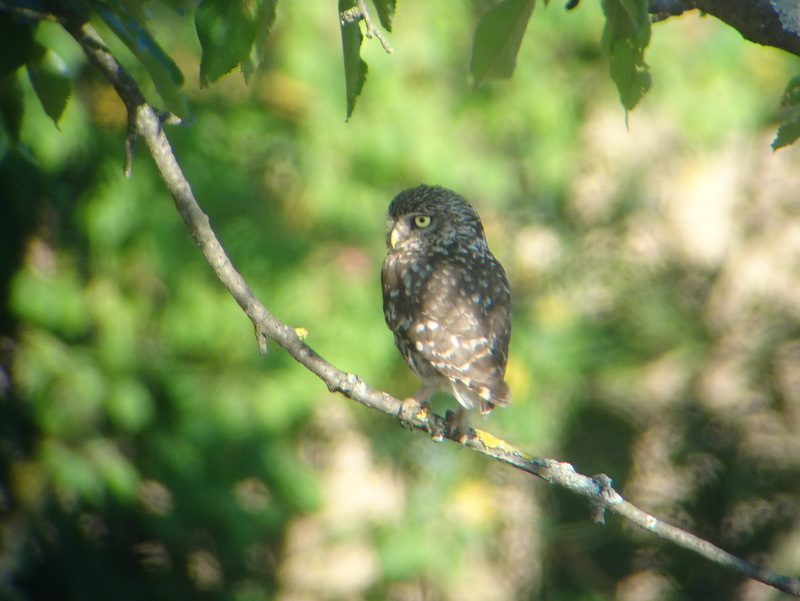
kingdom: Animalia
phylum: Chordata
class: Aves
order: Strigiformes
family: Strigidae
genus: Athene
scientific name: Athene noctua
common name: Little owl
